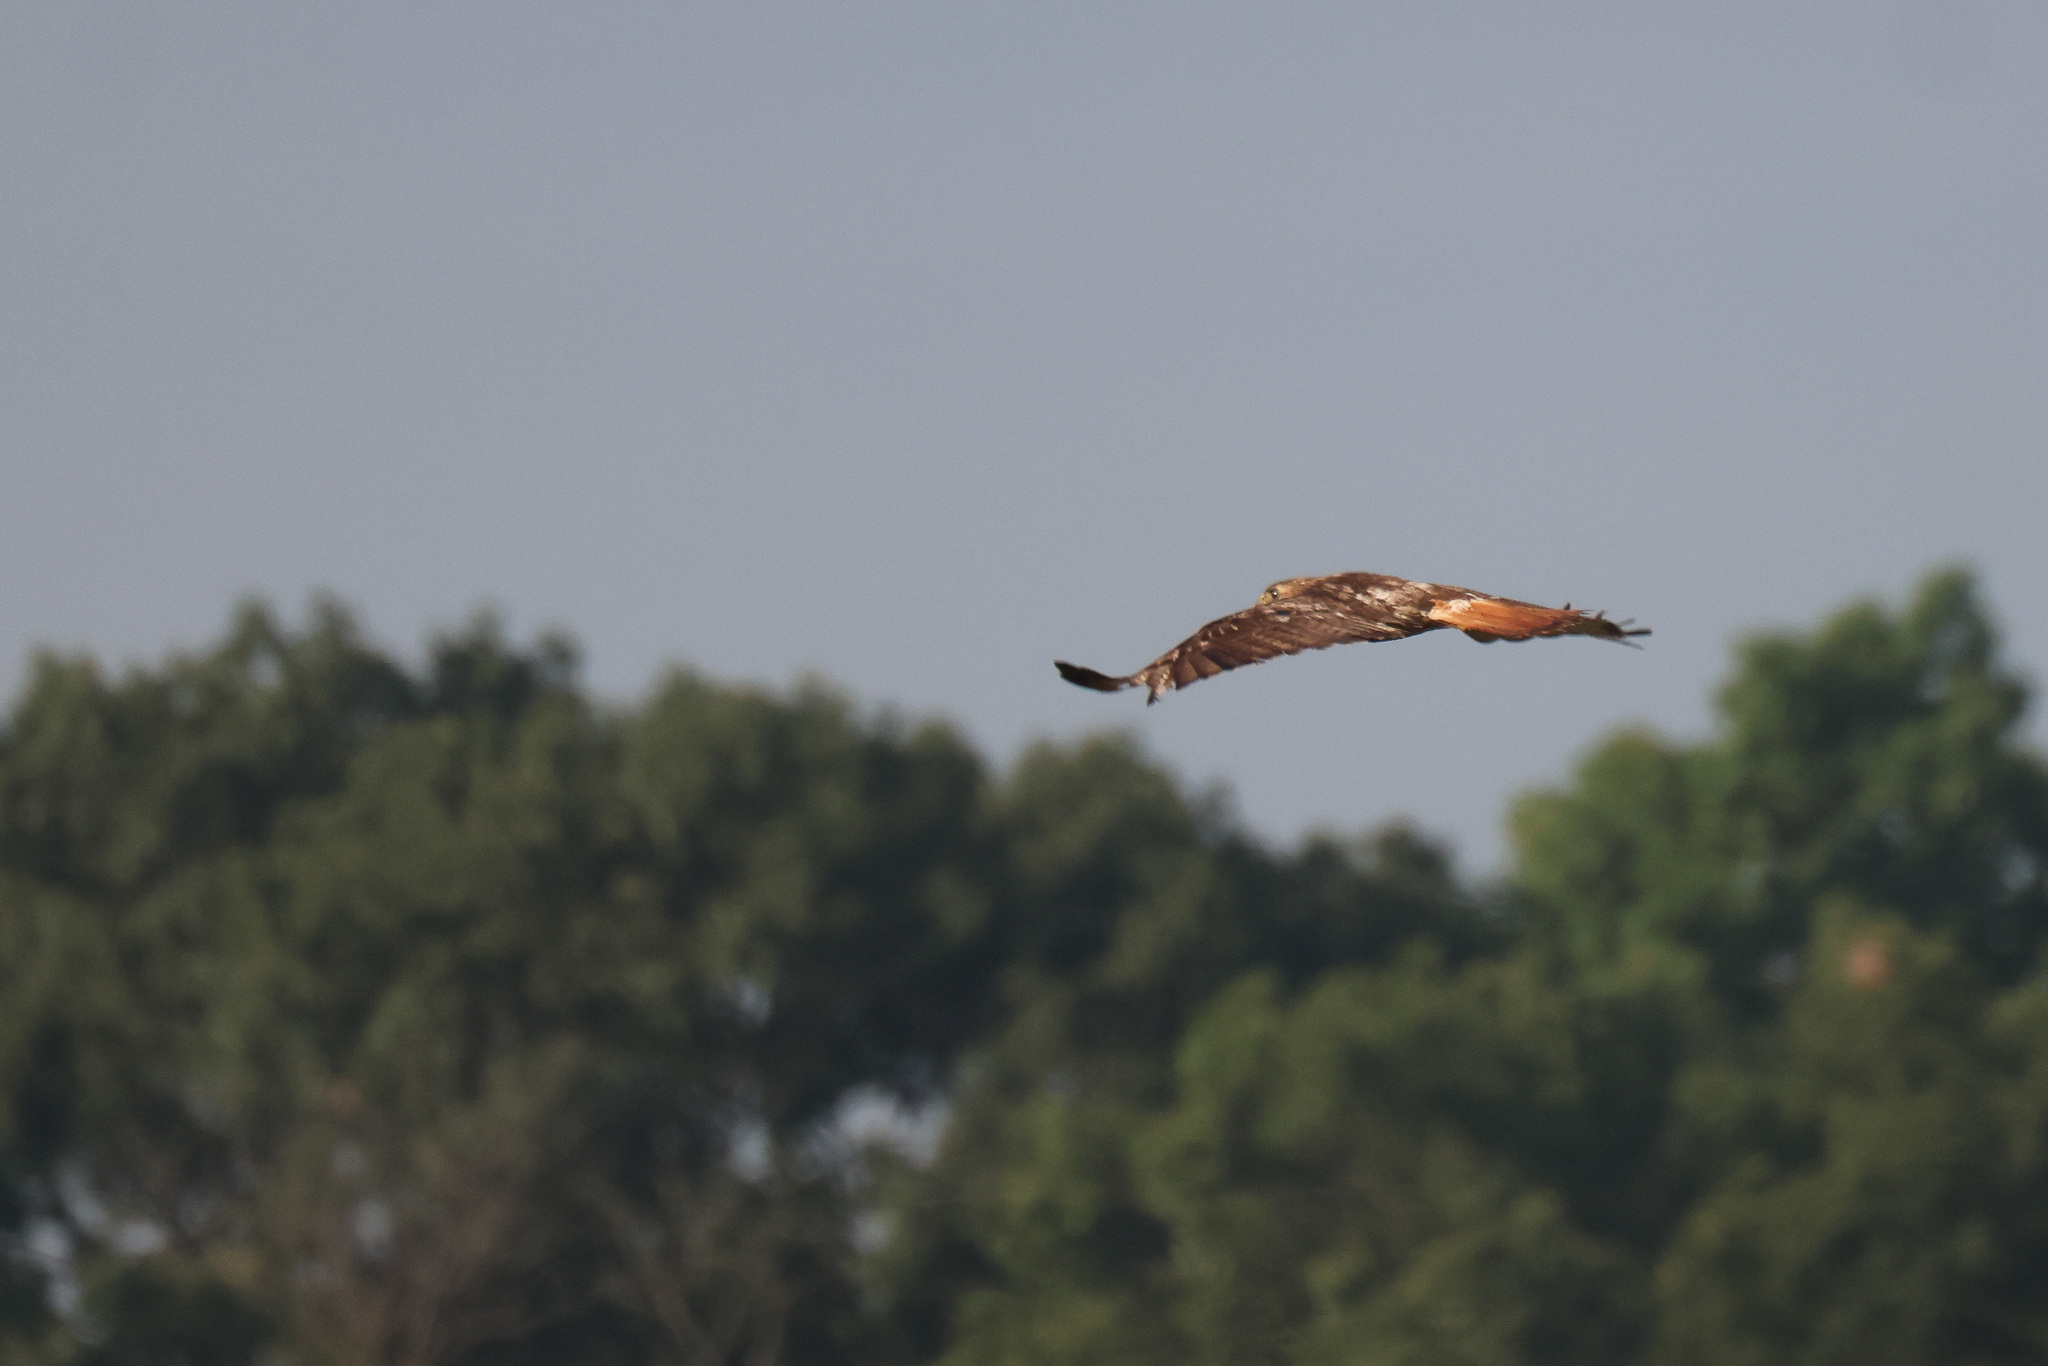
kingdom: Animalia
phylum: Chordata
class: Aves
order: Accipitriformes
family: Accipitridae
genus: Buteo
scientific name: Buteo jamaicensis
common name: Red-tailed hawk
